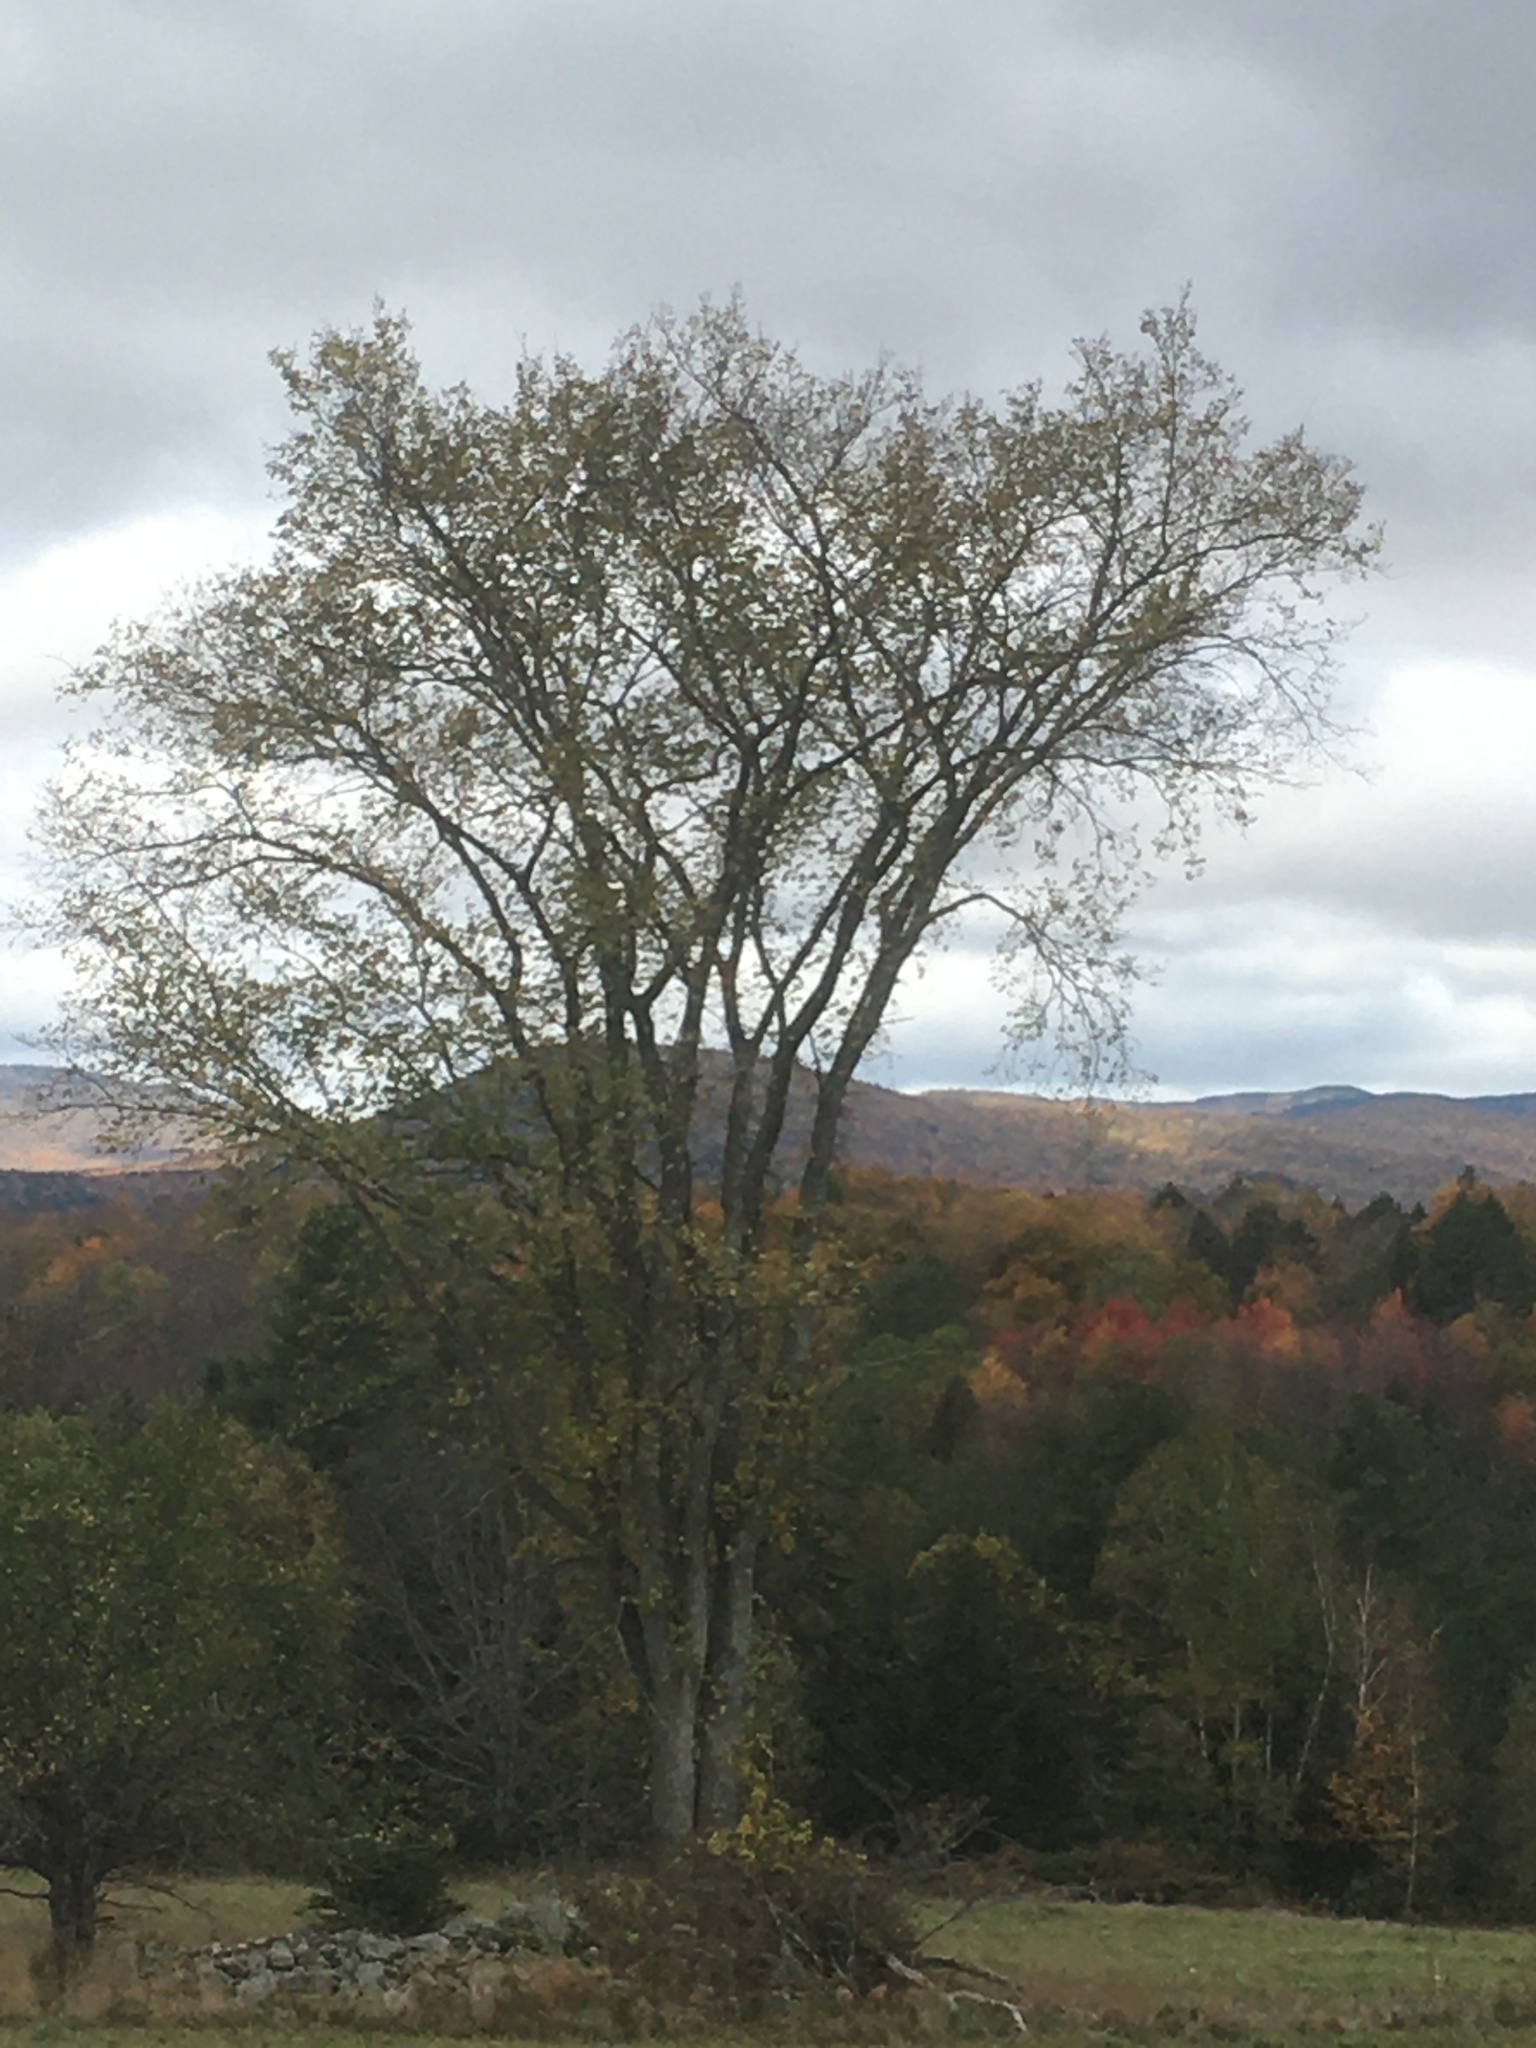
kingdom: Plantae
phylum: Tracheophyta
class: Magnoliopsida
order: Rosales
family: Ulmaceae
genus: Ulmus
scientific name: Ulmus americana
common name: American elm
